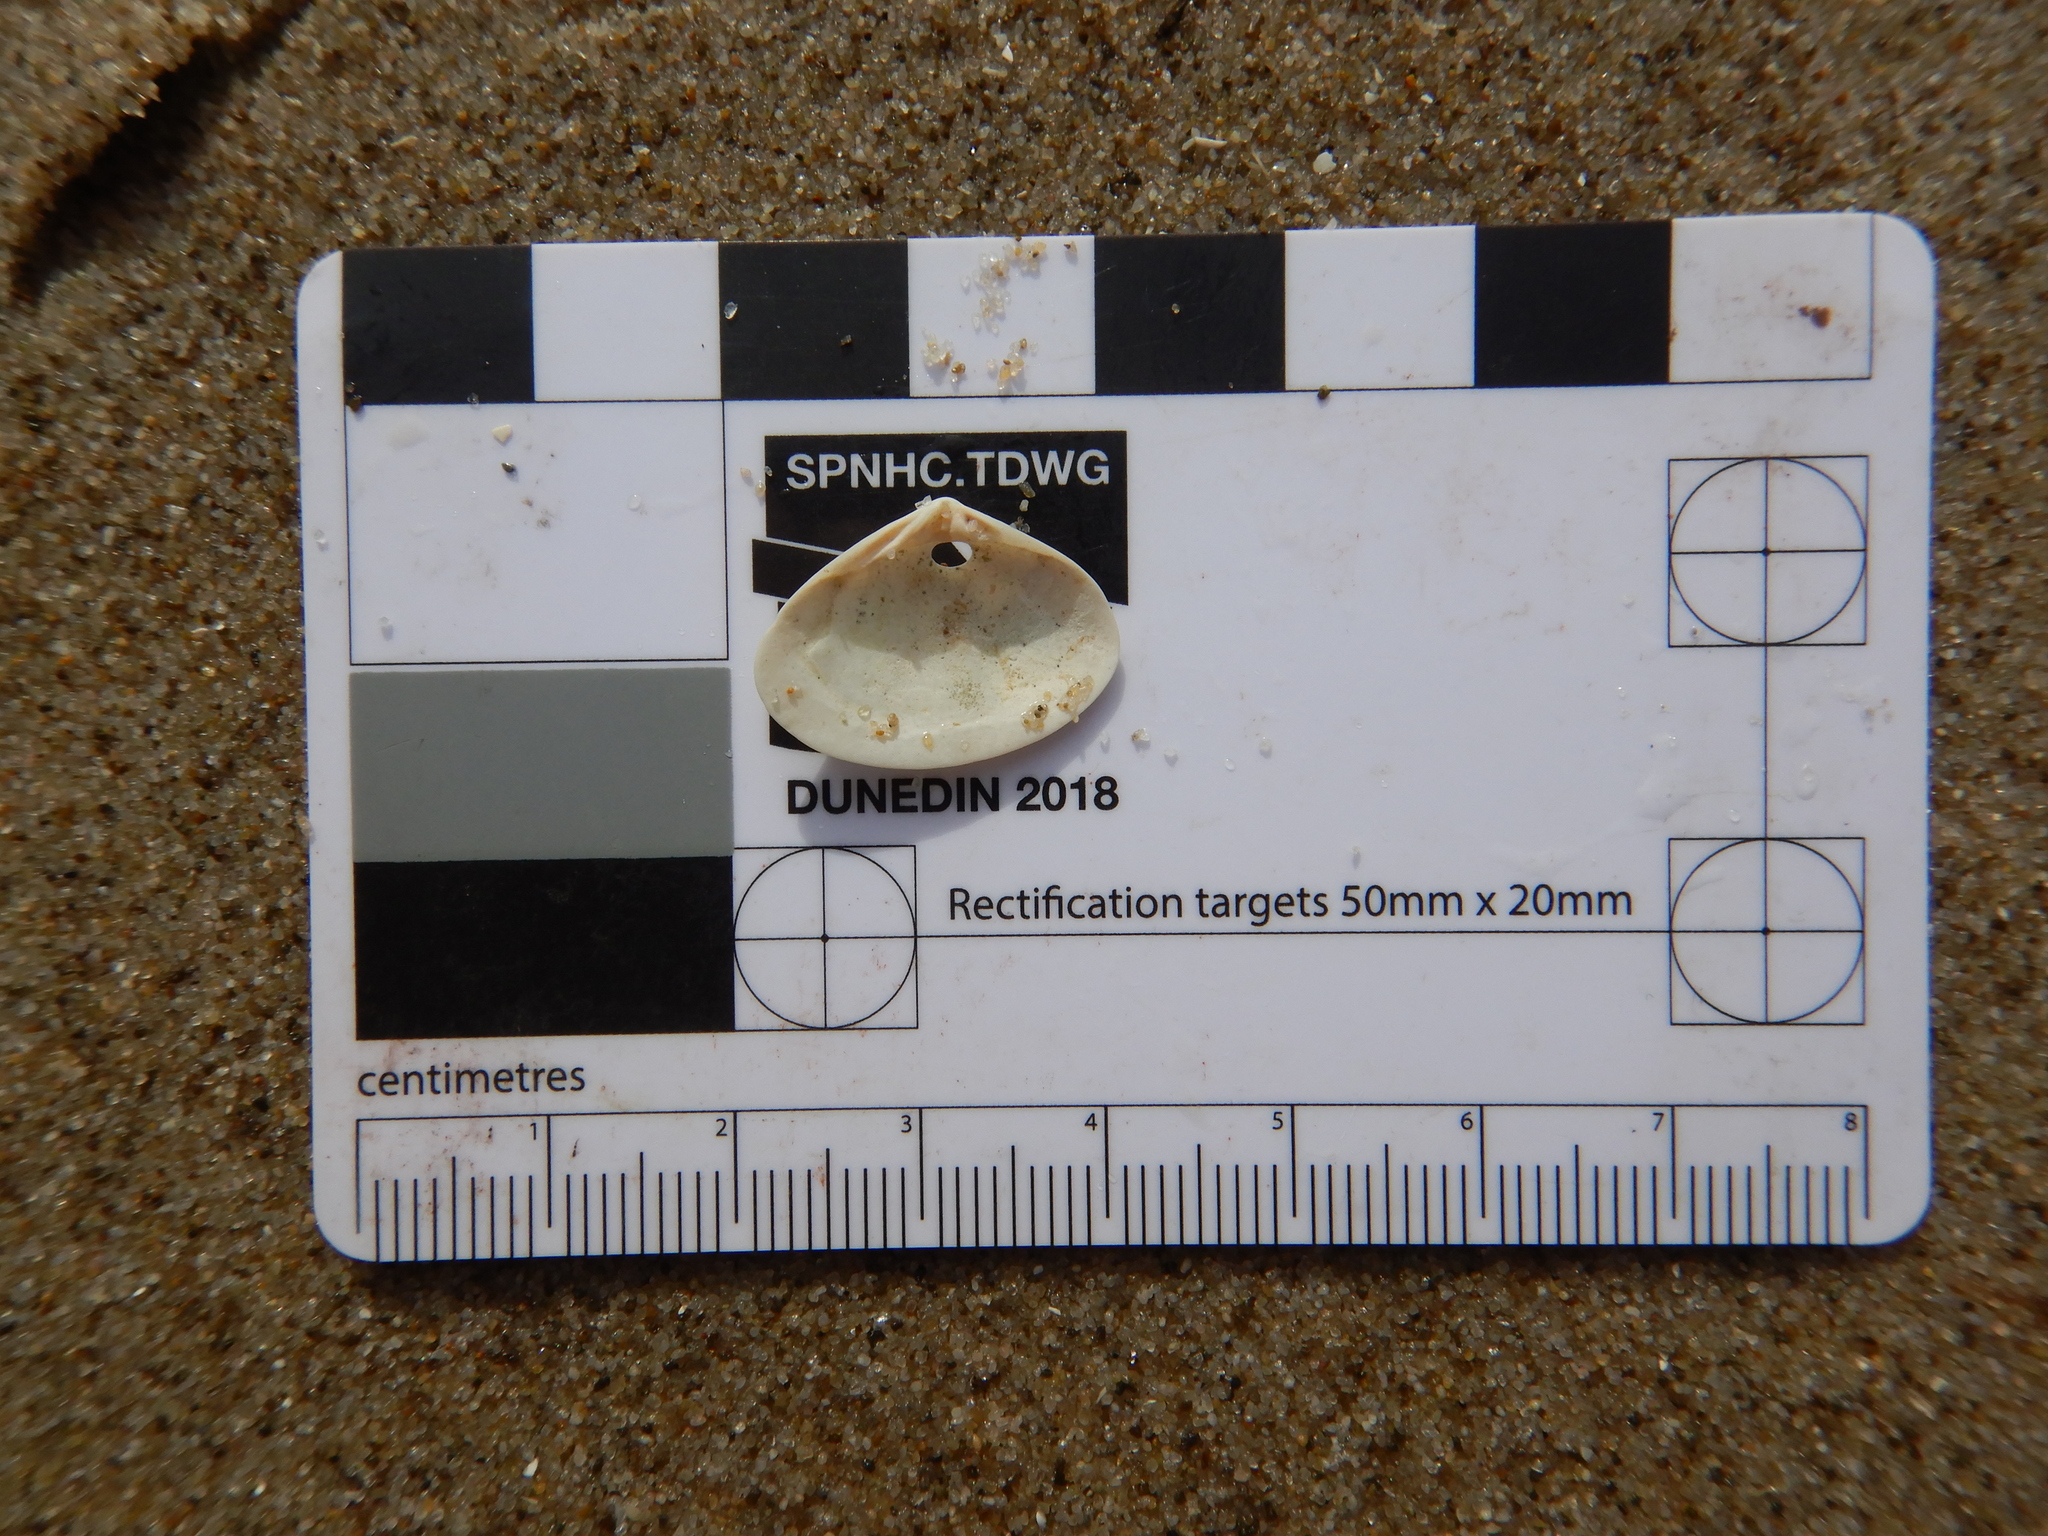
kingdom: Animalia
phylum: Mollusca
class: Bivalvia
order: Venerida
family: Mesodesmatidae
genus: Atactodea
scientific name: Atactodea erycinaea
